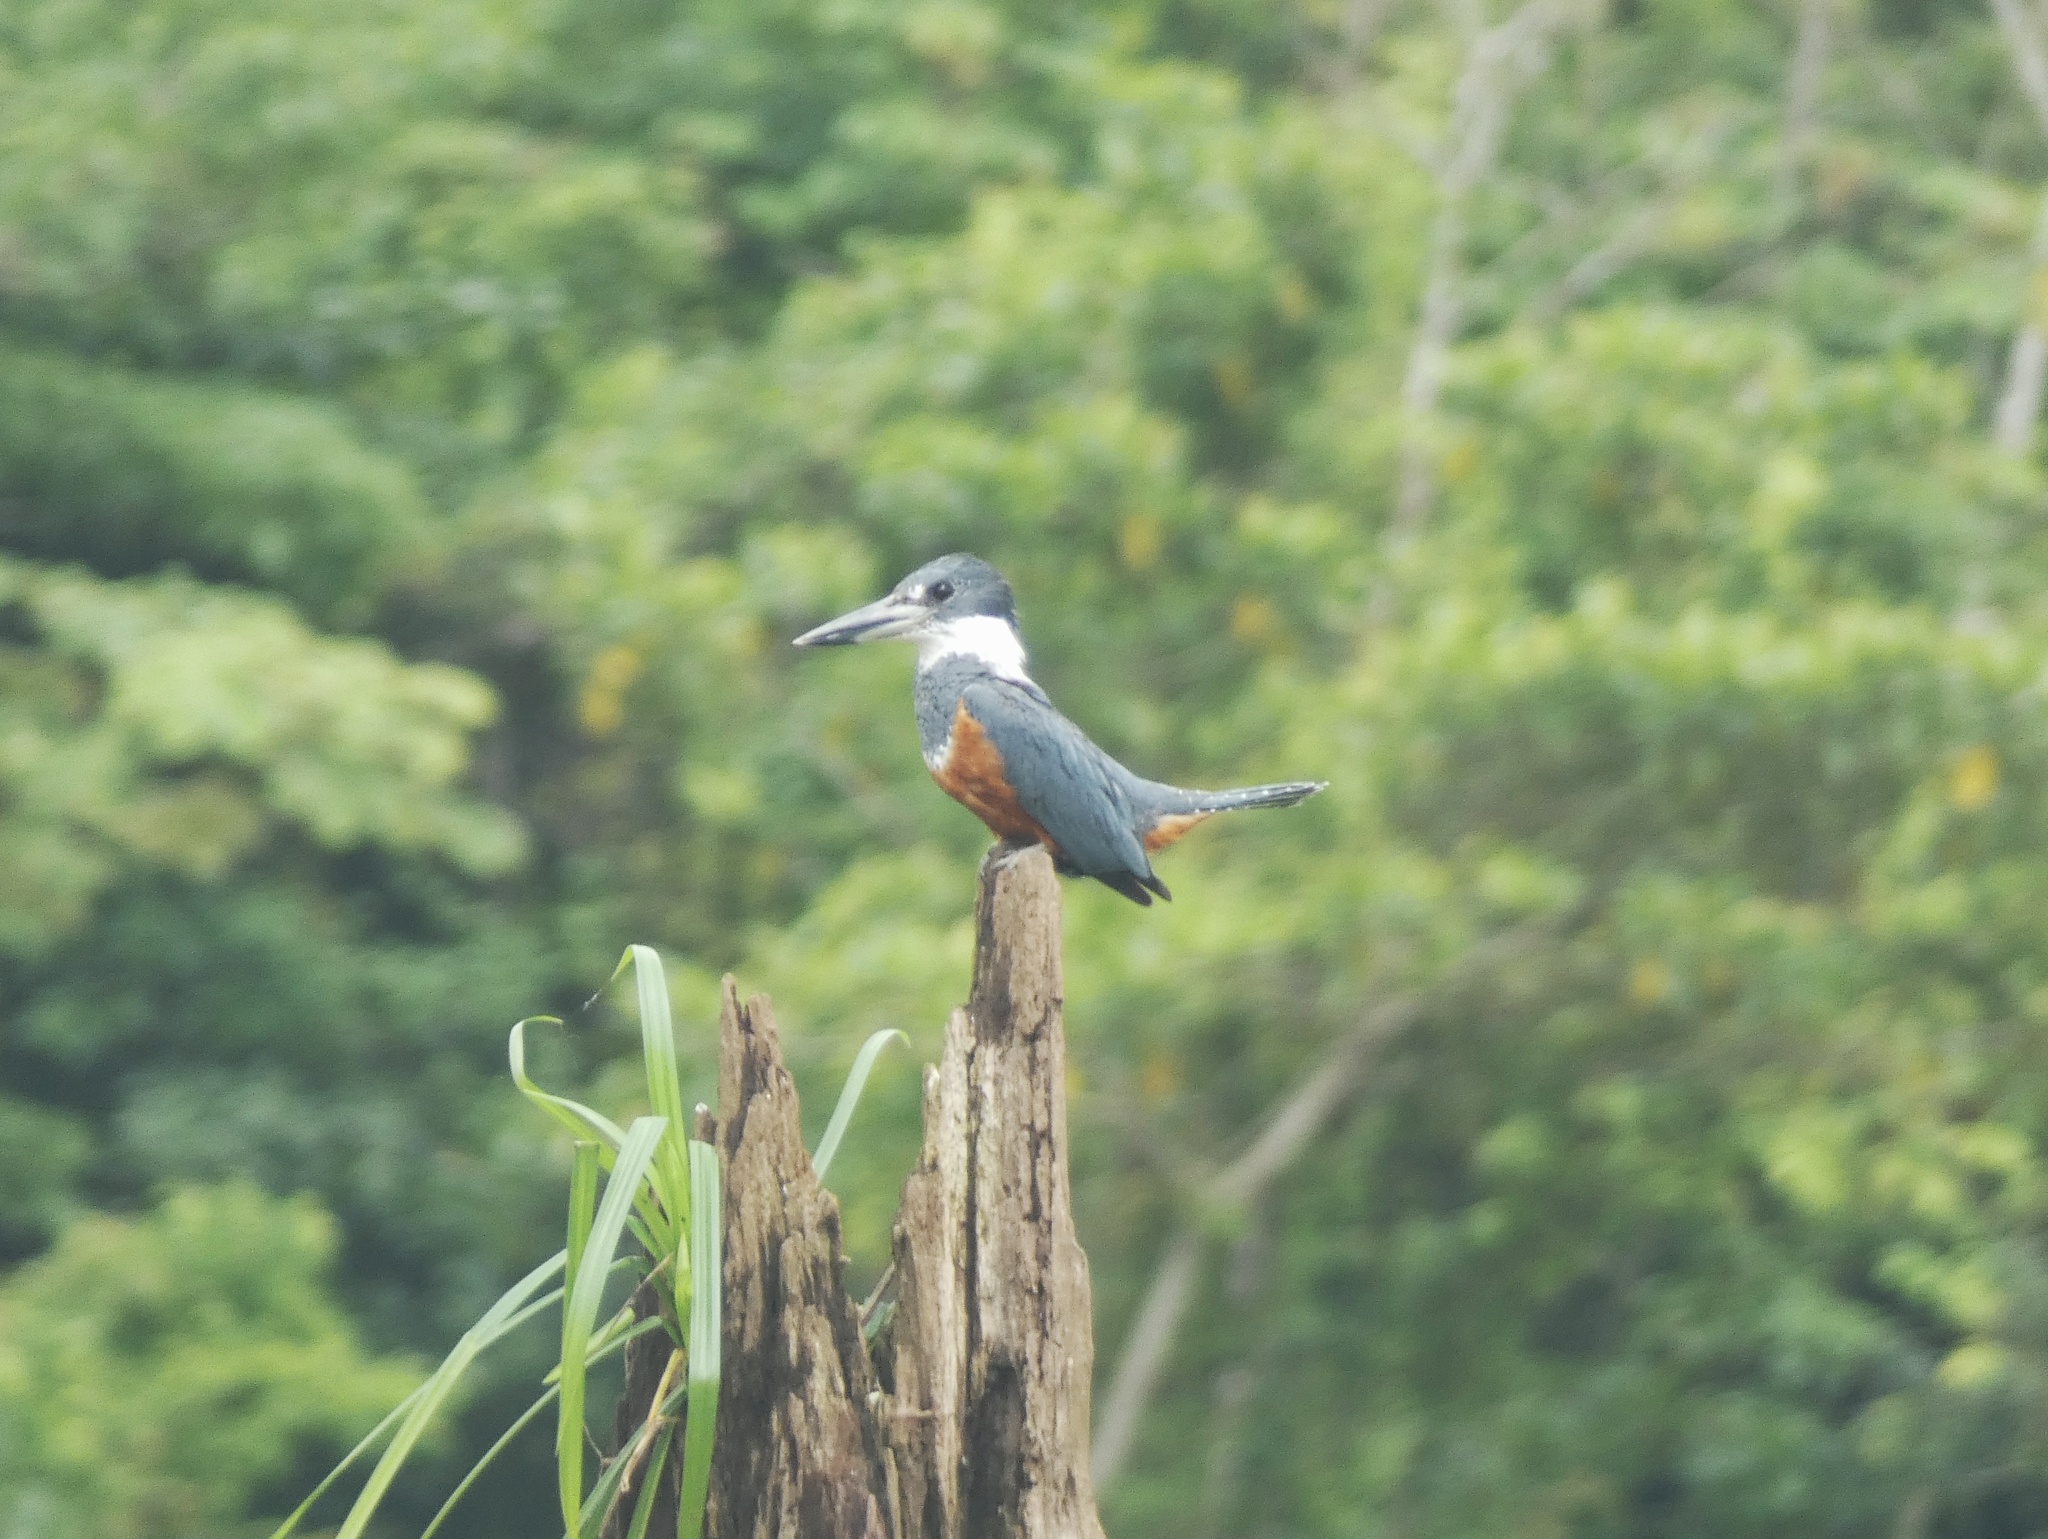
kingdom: Animalia
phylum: Chordata
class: Aves
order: Coraciiformes
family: Alcedinidae
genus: Megaceryle
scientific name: Megaceryle torquata
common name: Ringed kingfisher
